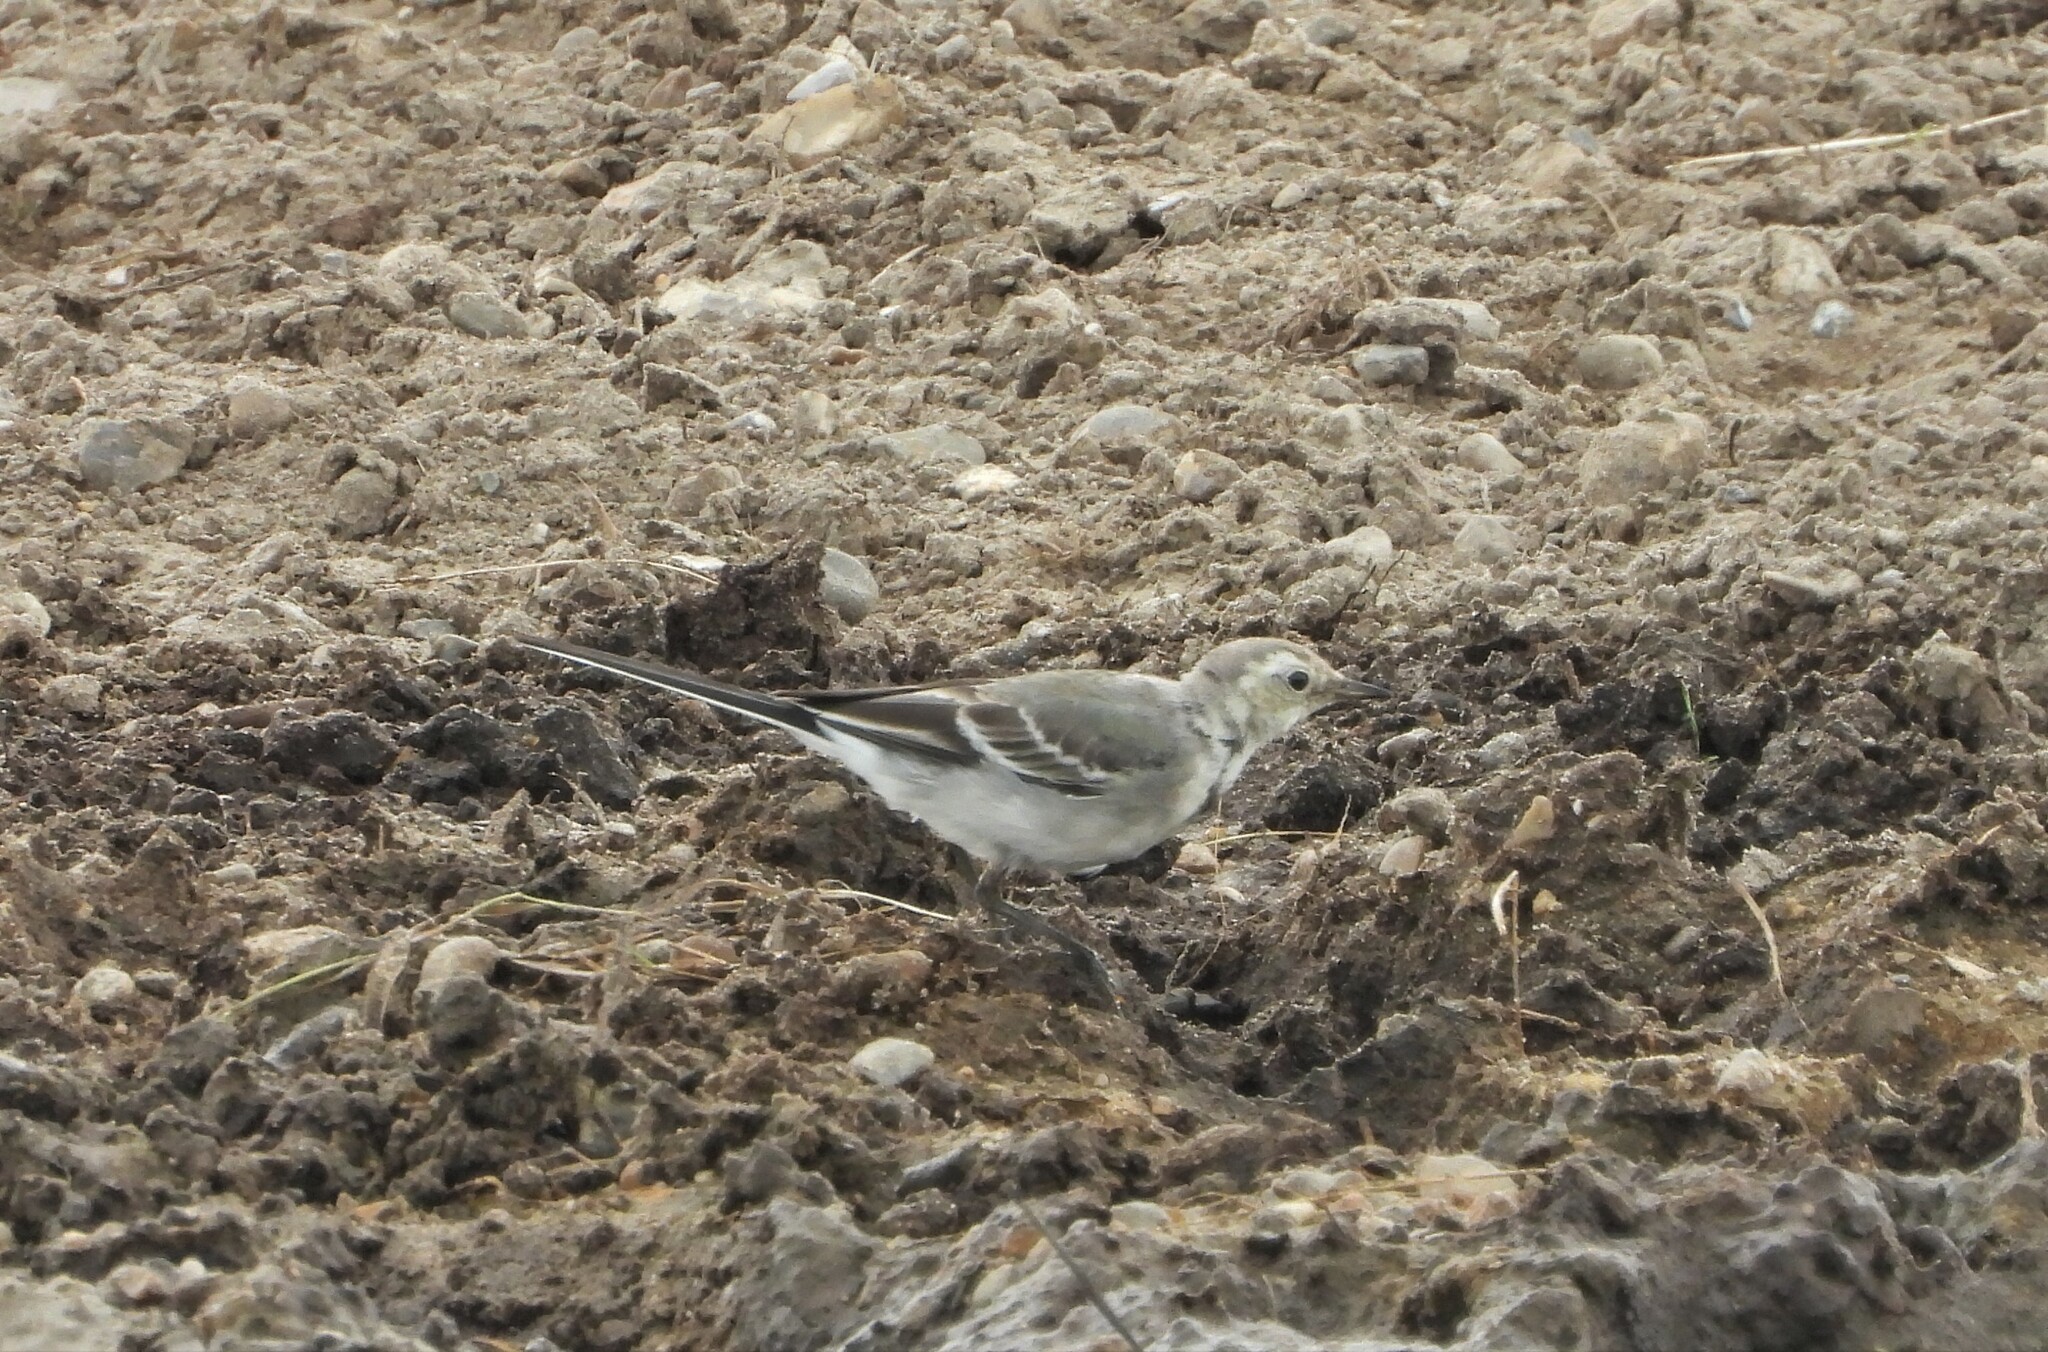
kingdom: Animalia
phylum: Chordata
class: Aves
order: Passeriformes
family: Motacillidae
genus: Motacilla
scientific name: Motacilla alba
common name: White wagtail
